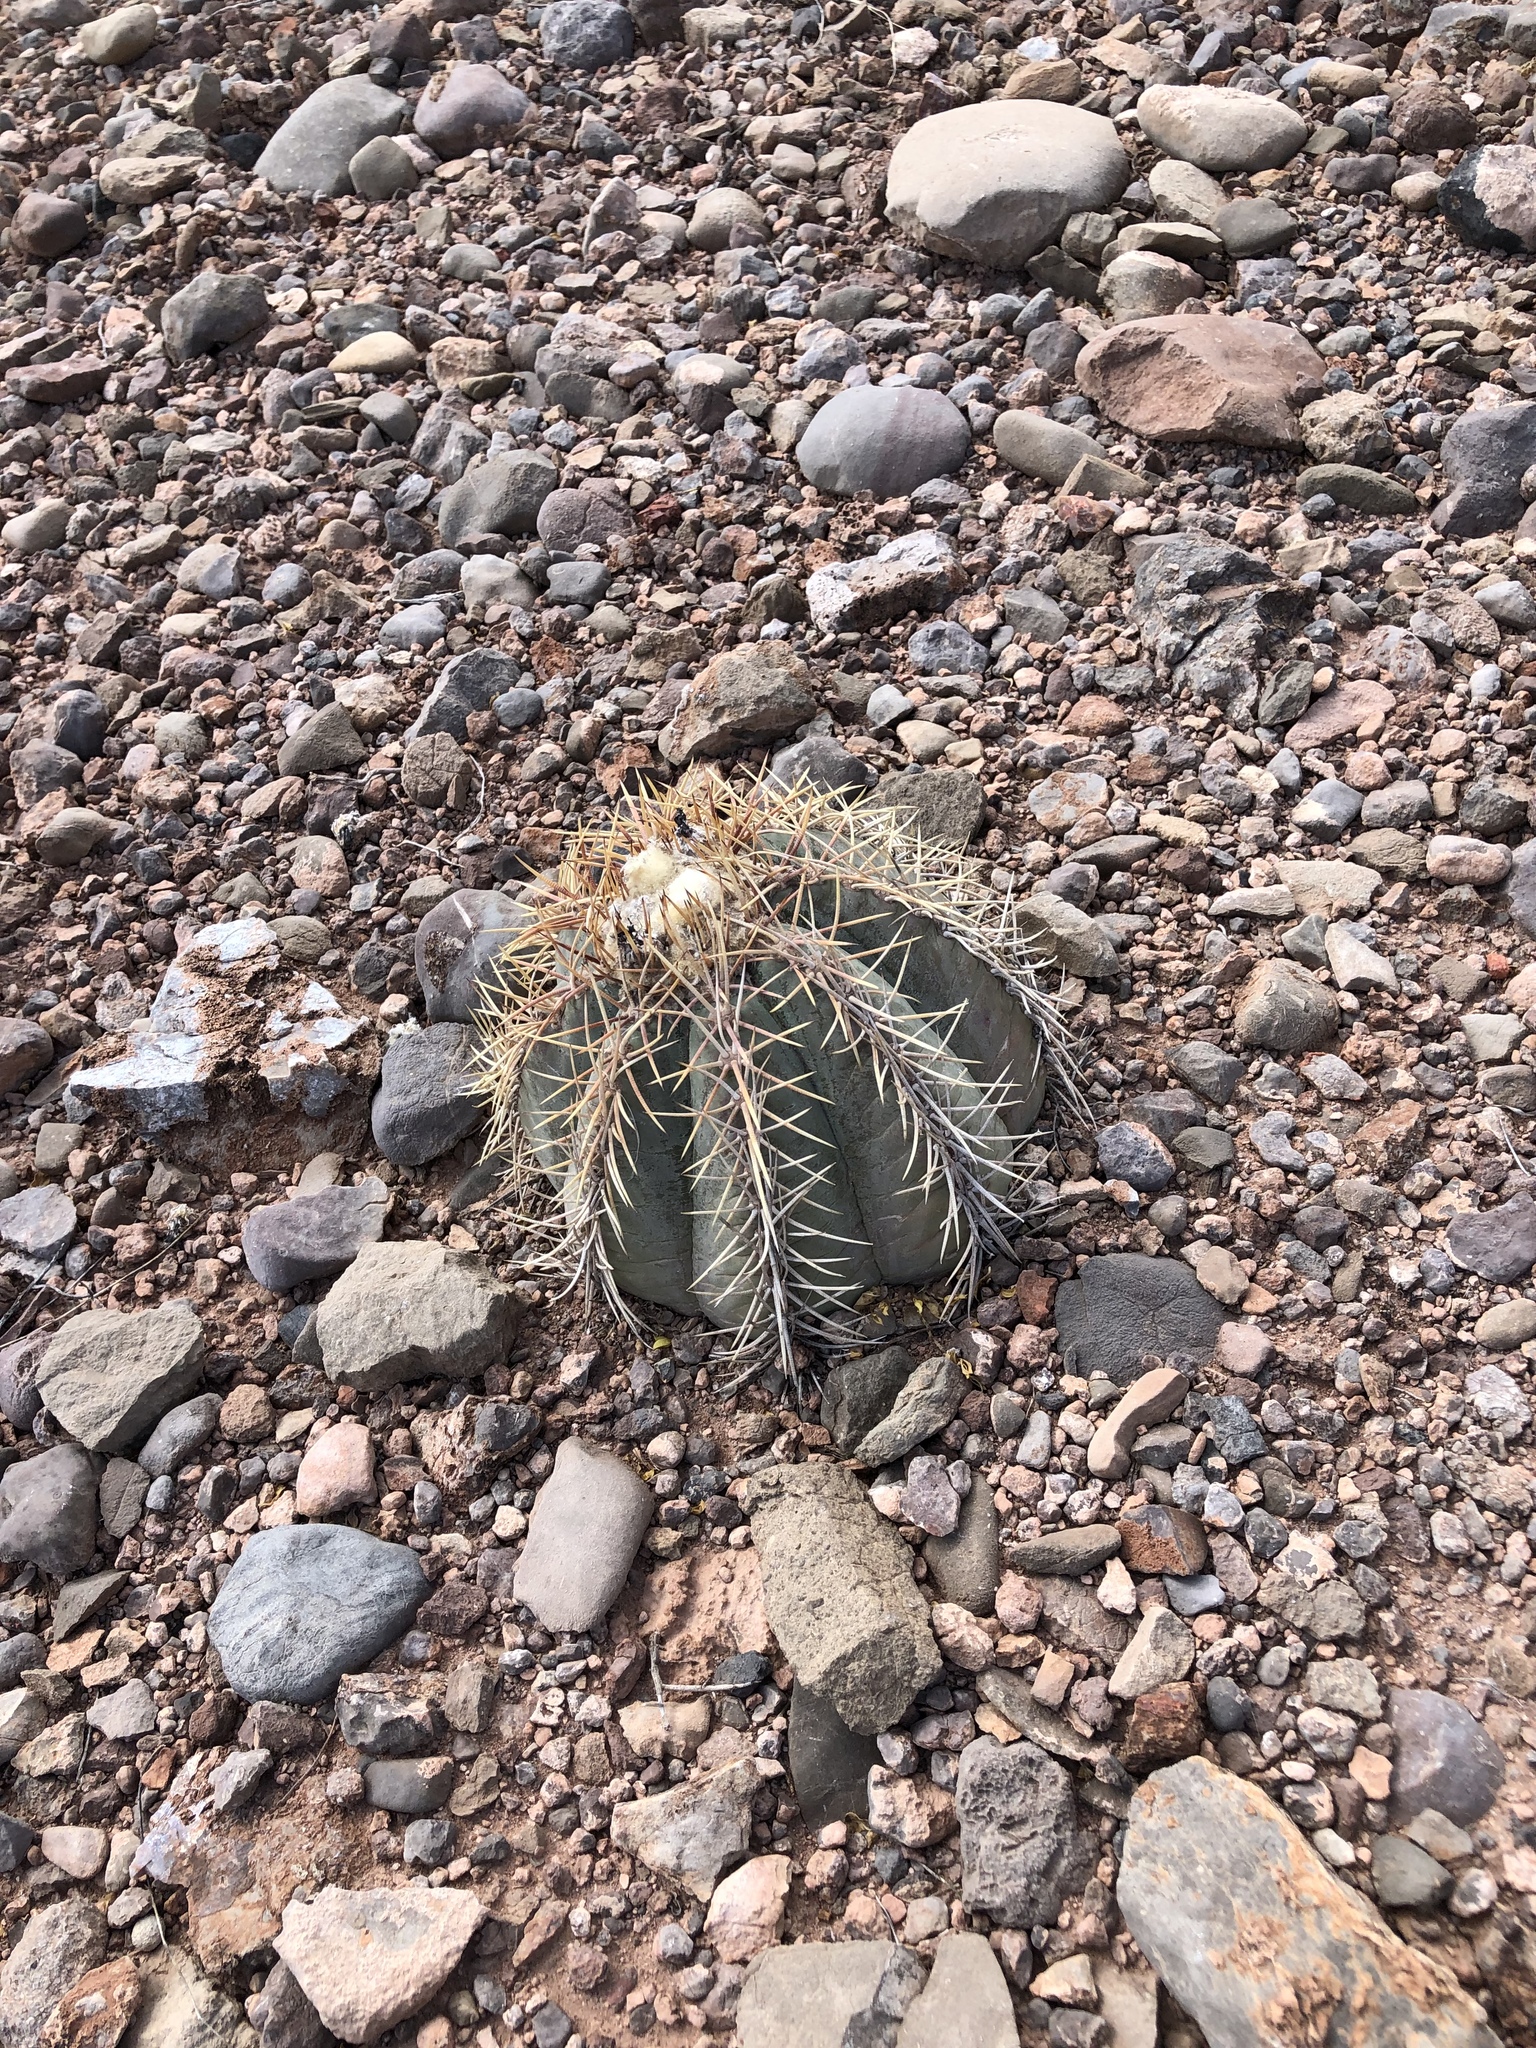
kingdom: Plantae
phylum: Tracheophyta
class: Magnoliopsida
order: Caryophyllales
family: Cactaceae
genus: Echinocactus
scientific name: Echinocactus horizonthalonius
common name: Devilshead
